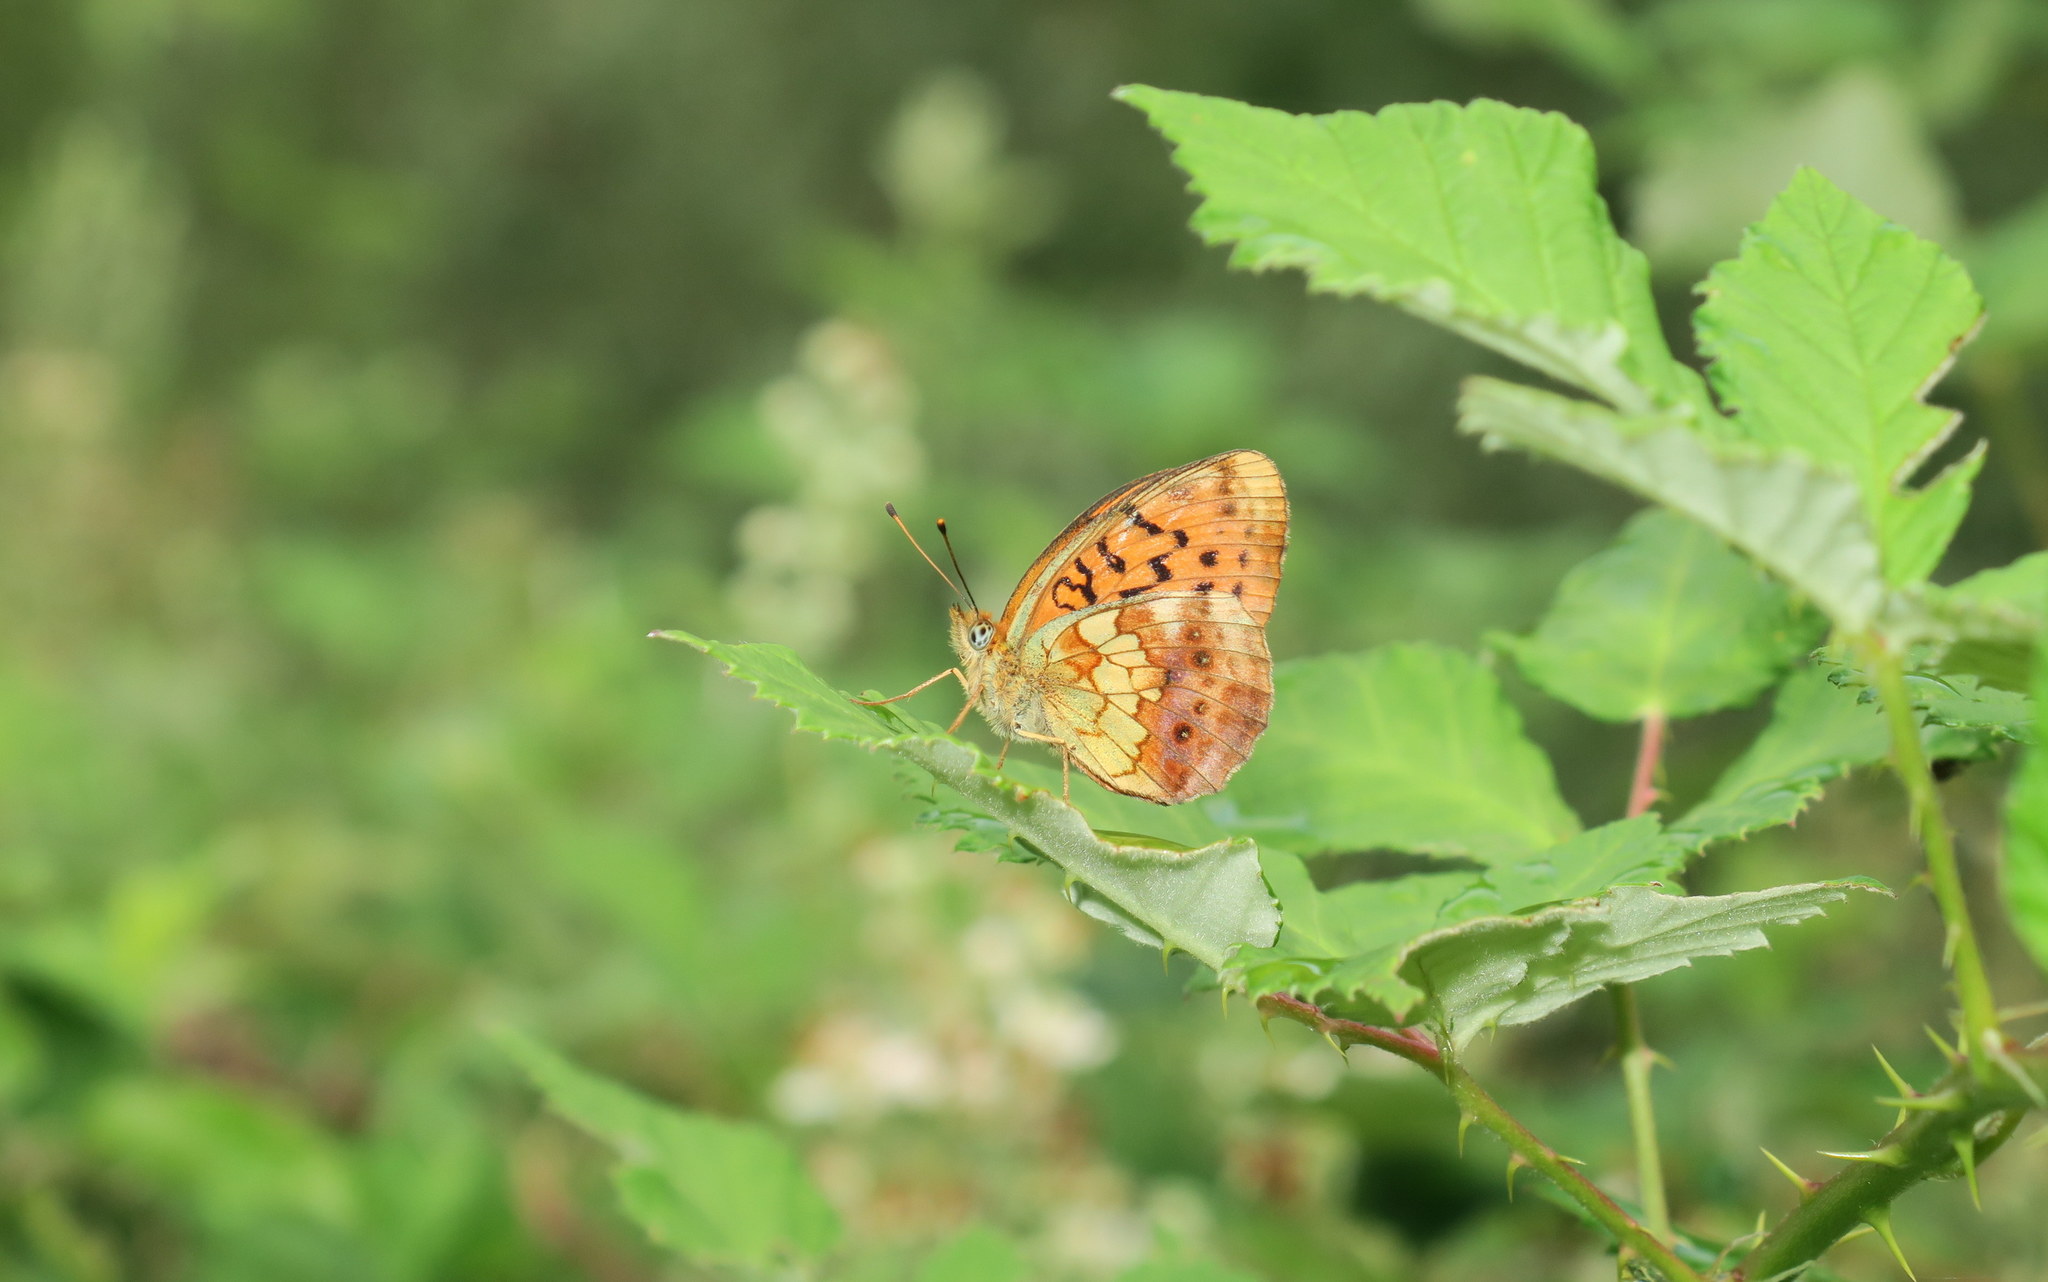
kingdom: Animalia
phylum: Arthropoda
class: Insecta
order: Lepidoptera
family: Nymphalidae
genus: Brenthis
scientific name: Brenthis daphne
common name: Marbled fritillary
